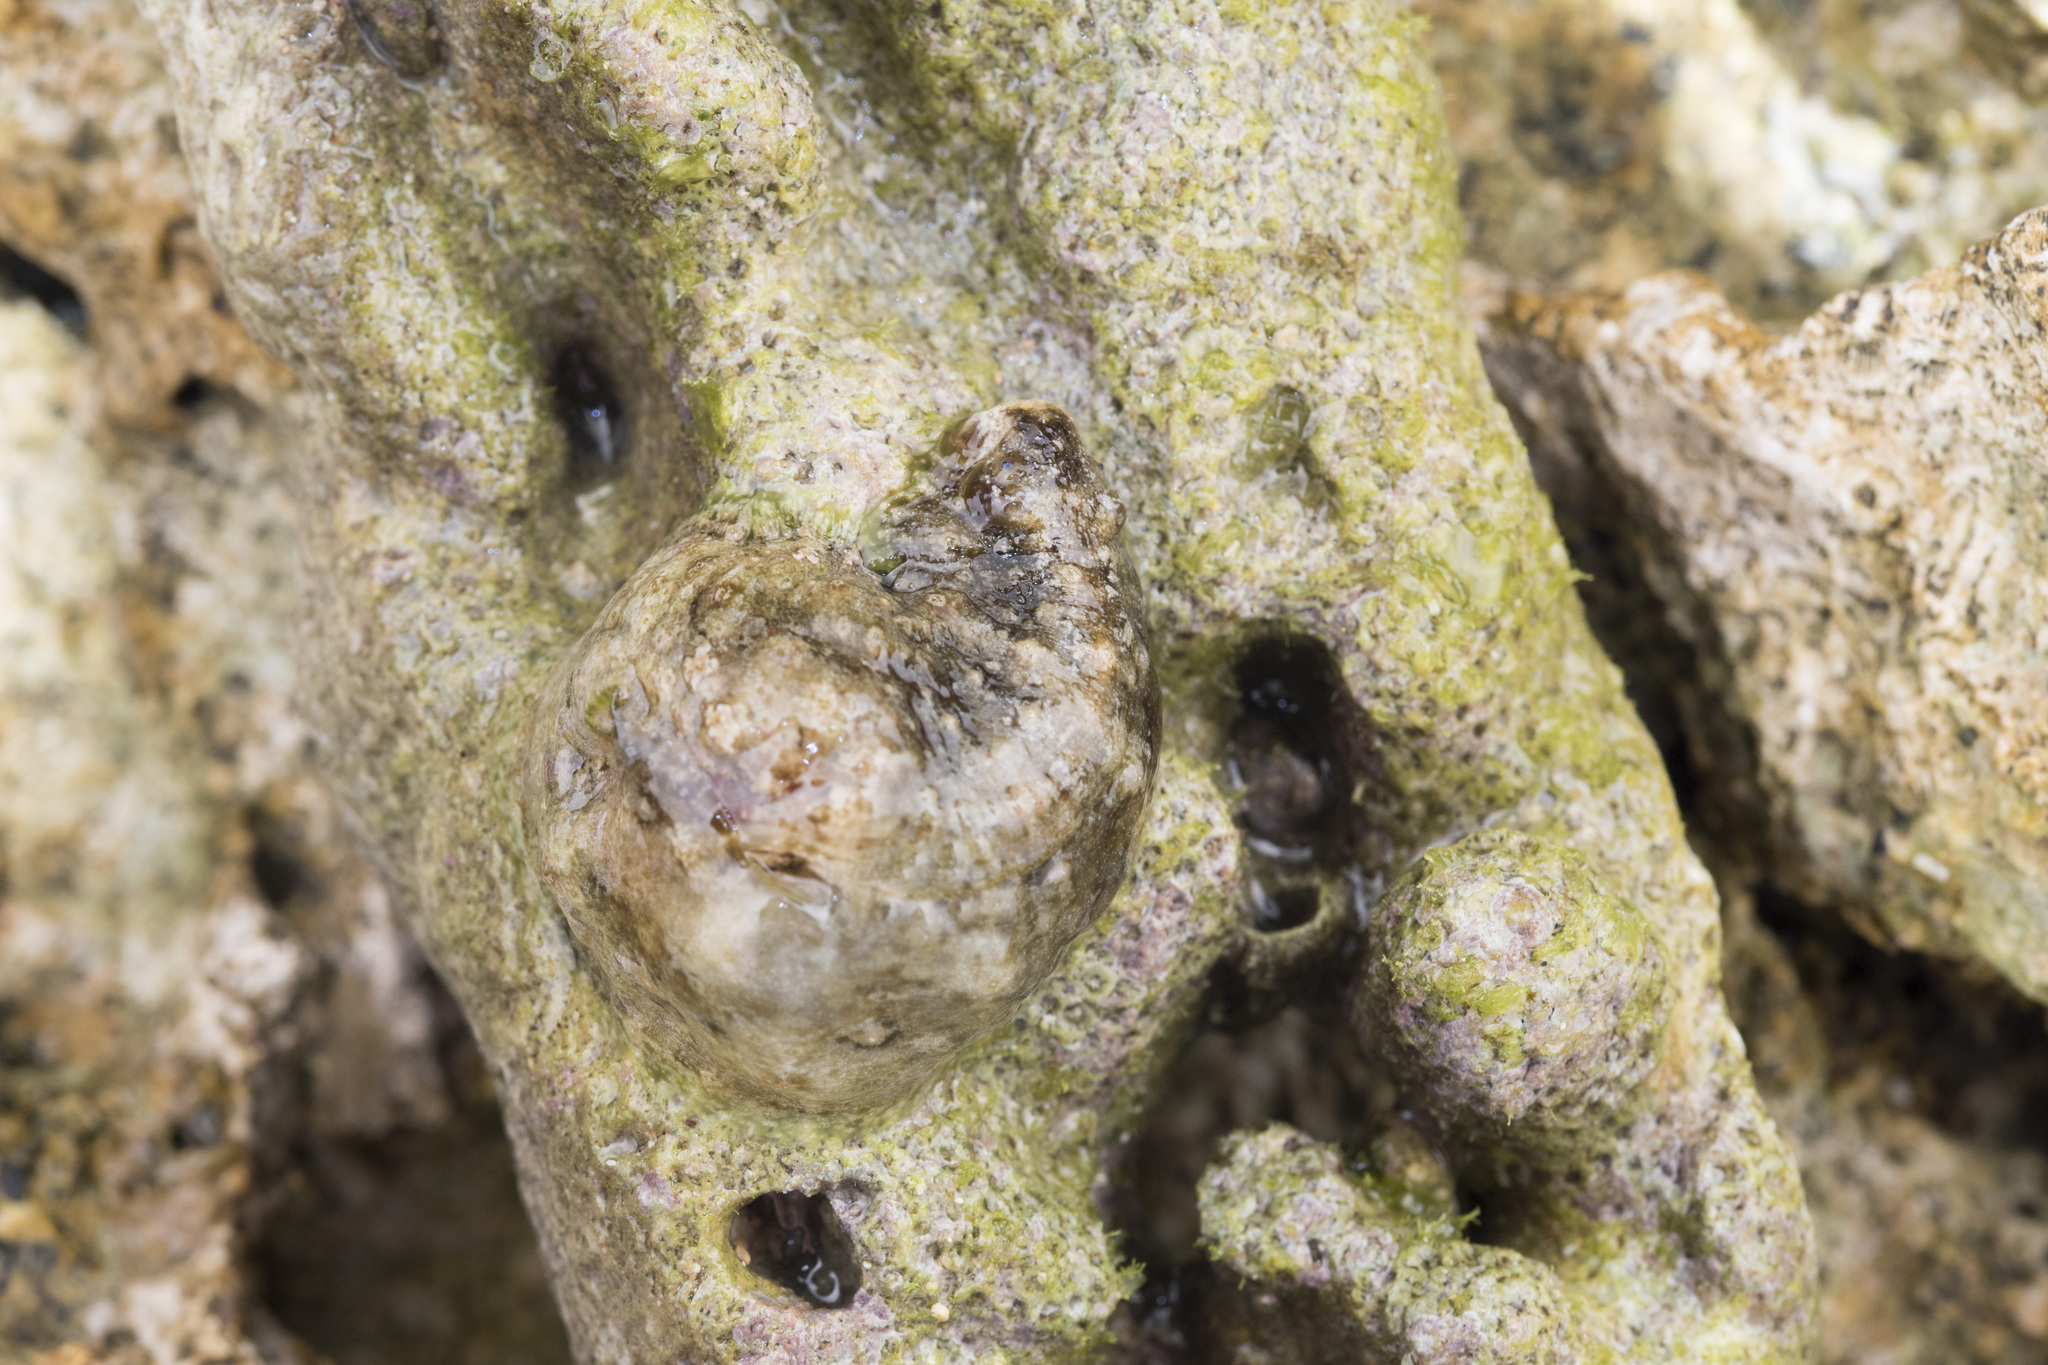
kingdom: Animalia
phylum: Mollusca
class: Gastropoda
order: Aplysiida
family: Aplysiidae
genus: Dolabrifera
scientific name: Dolabrifera dolabrifera
